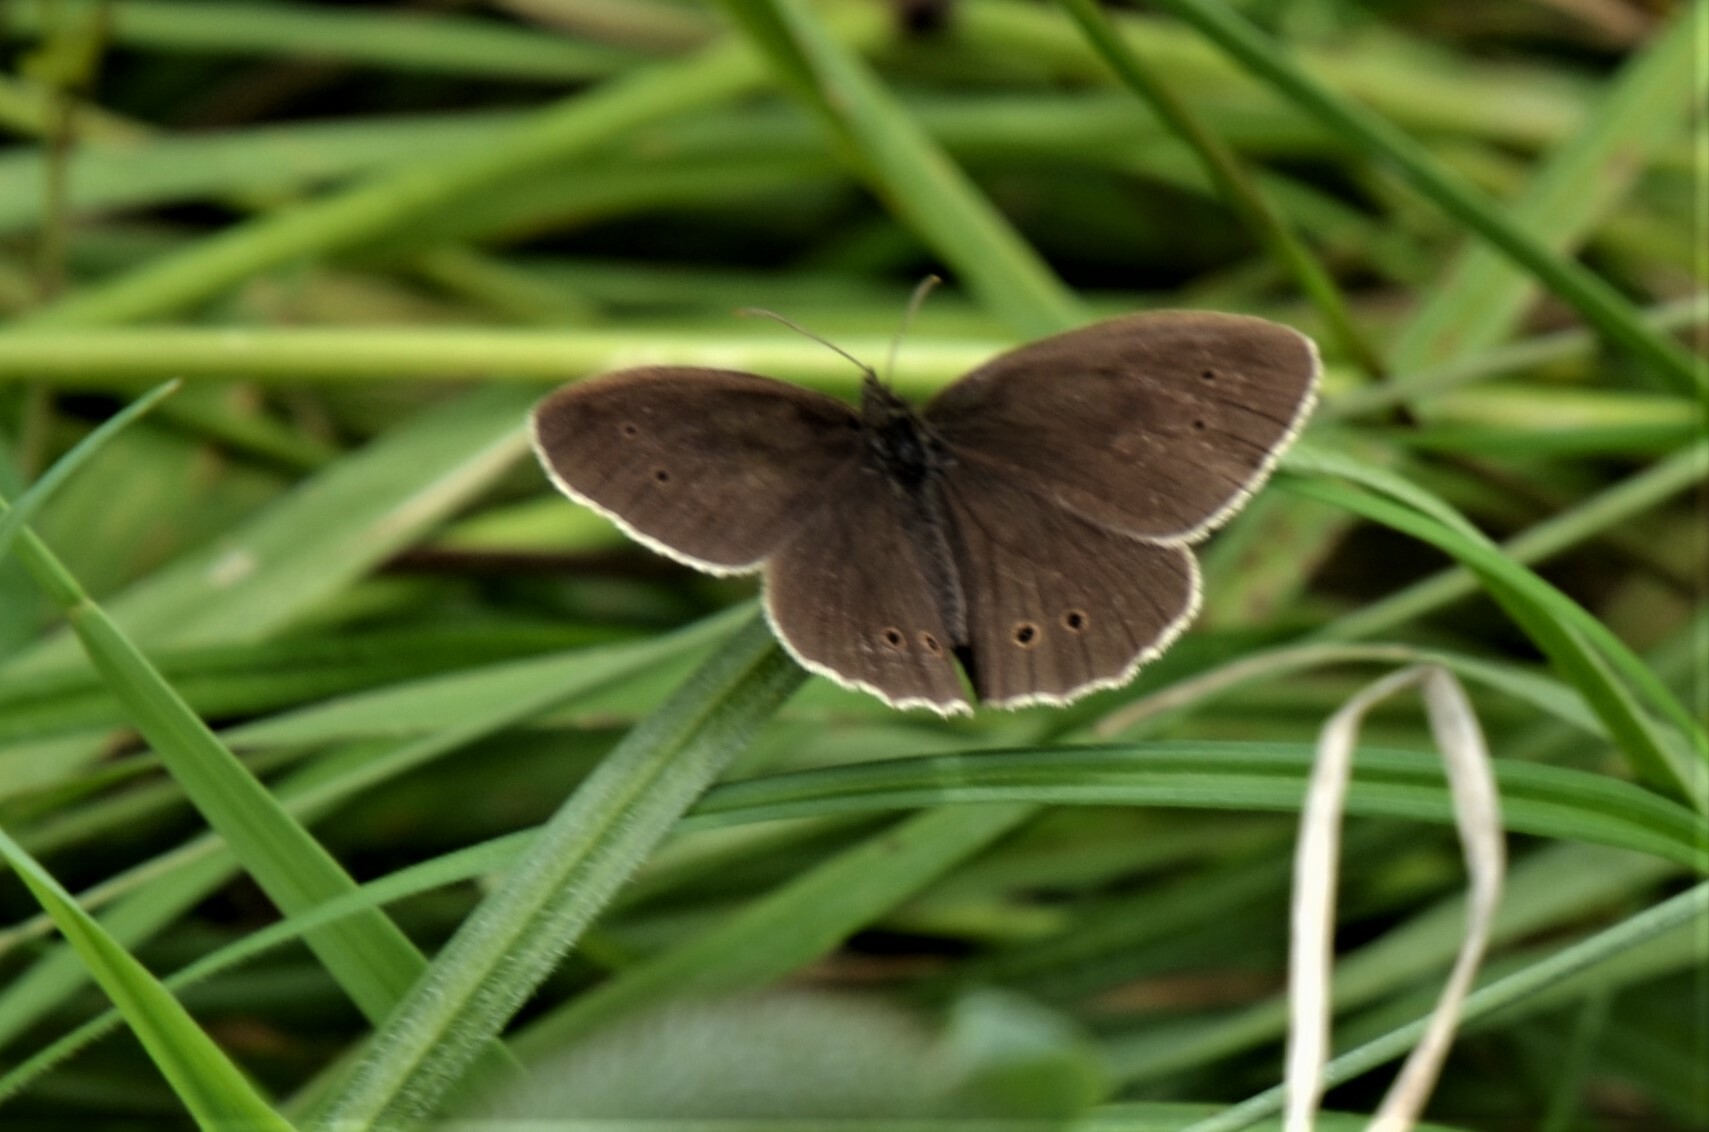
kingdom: Animalia
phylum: Arthropoda
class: Insecta
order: Lepidoptera
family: Nymphalidae
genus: Aphantopus
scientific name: Aphantopus hyperantus
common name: Ringlet
